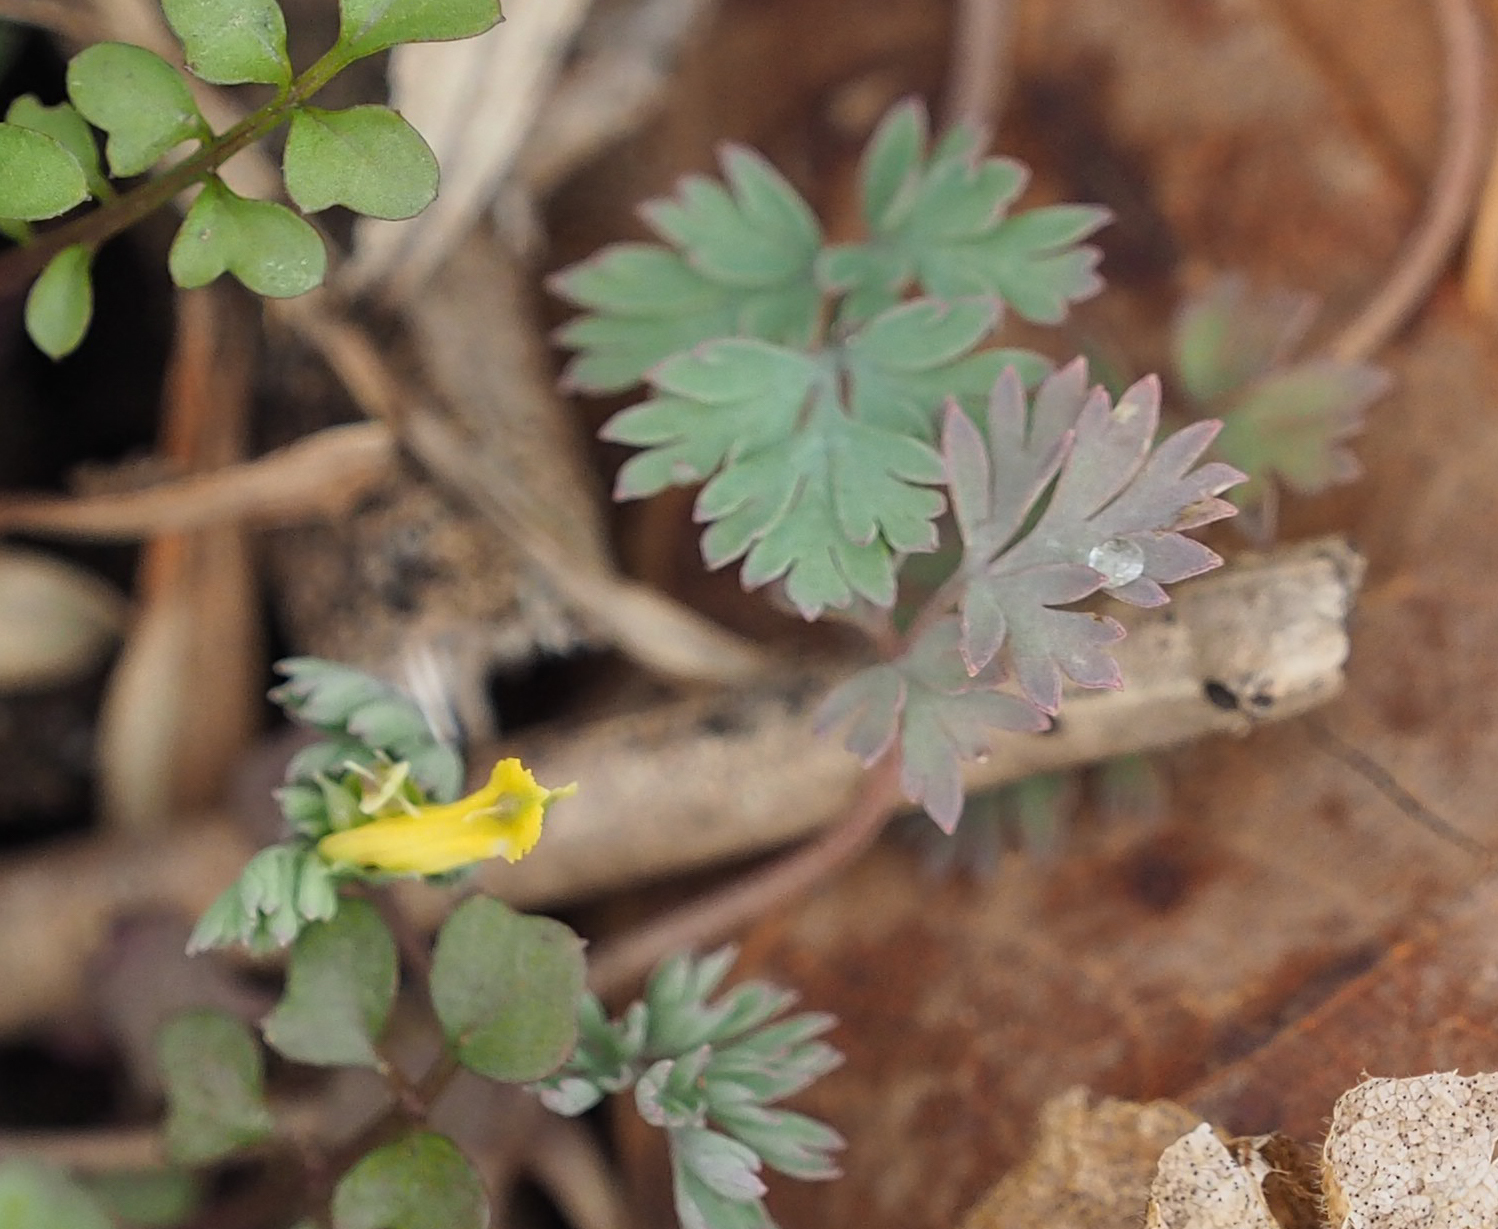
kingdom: Plantae
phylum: Tracheophyta
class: Magnoliopsida
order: Ranunculales
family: Papaveraceae
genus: Corydalis
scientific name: Corydalis flavula
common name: Yellow corydalis
